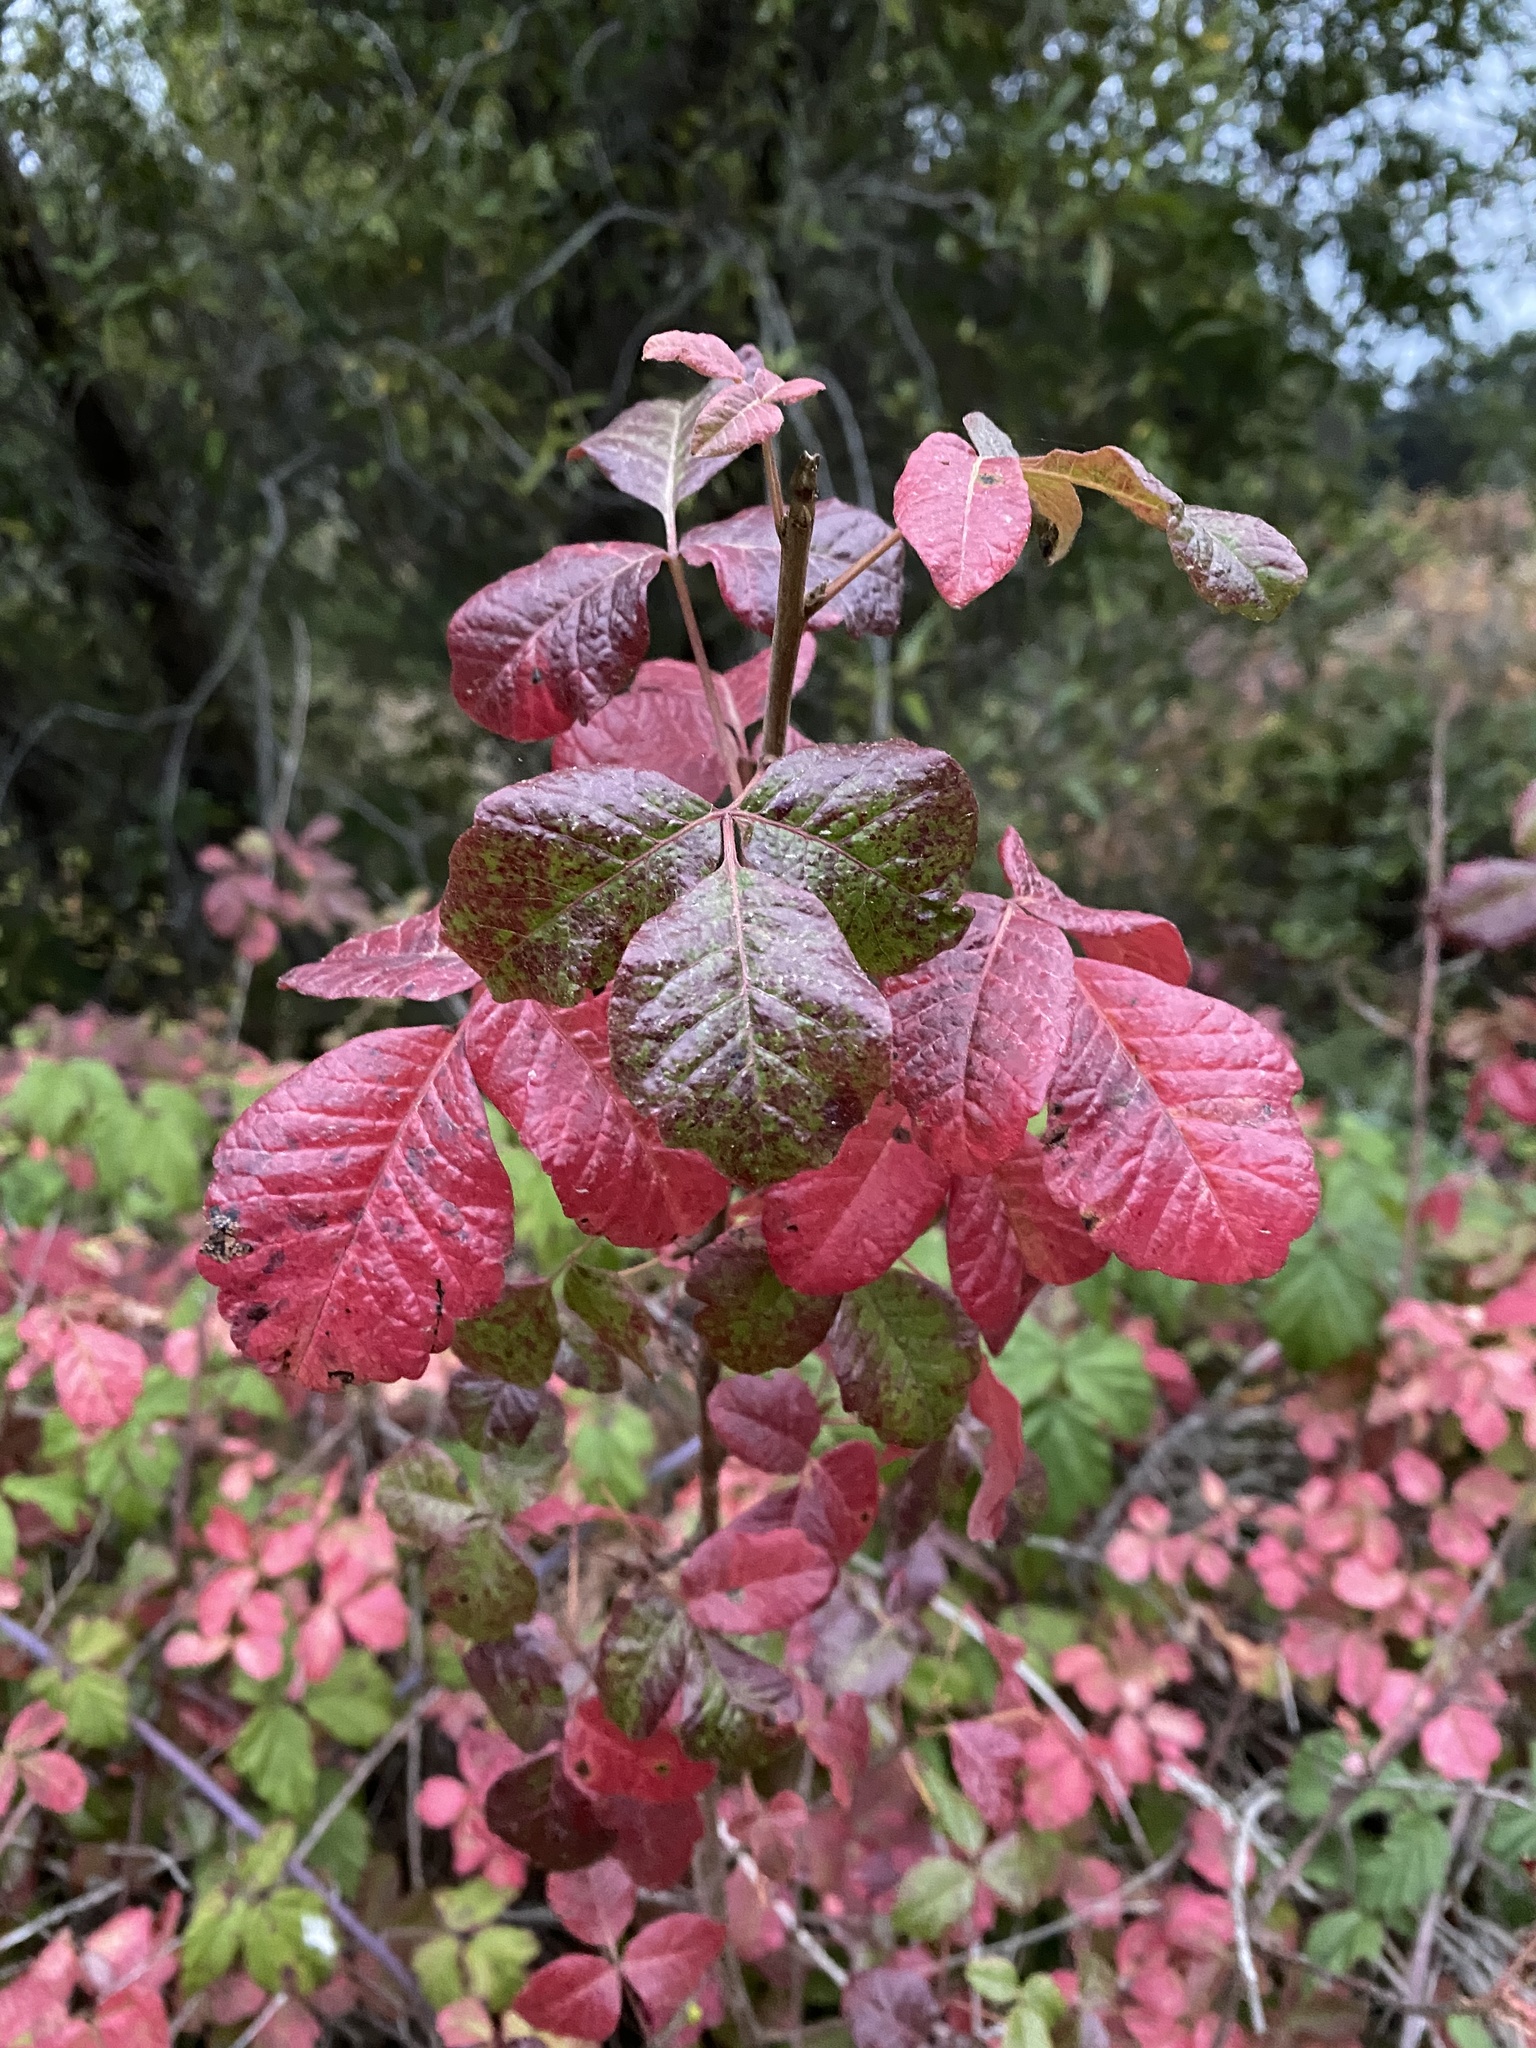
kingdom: Plantae
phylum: Tracheophyta
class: Magnoliopsida
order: Sapindales
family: Anacardiaceae
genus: Toxicodendron
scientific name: Toxicodendron diversilobum
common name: Pacific poison-oak
